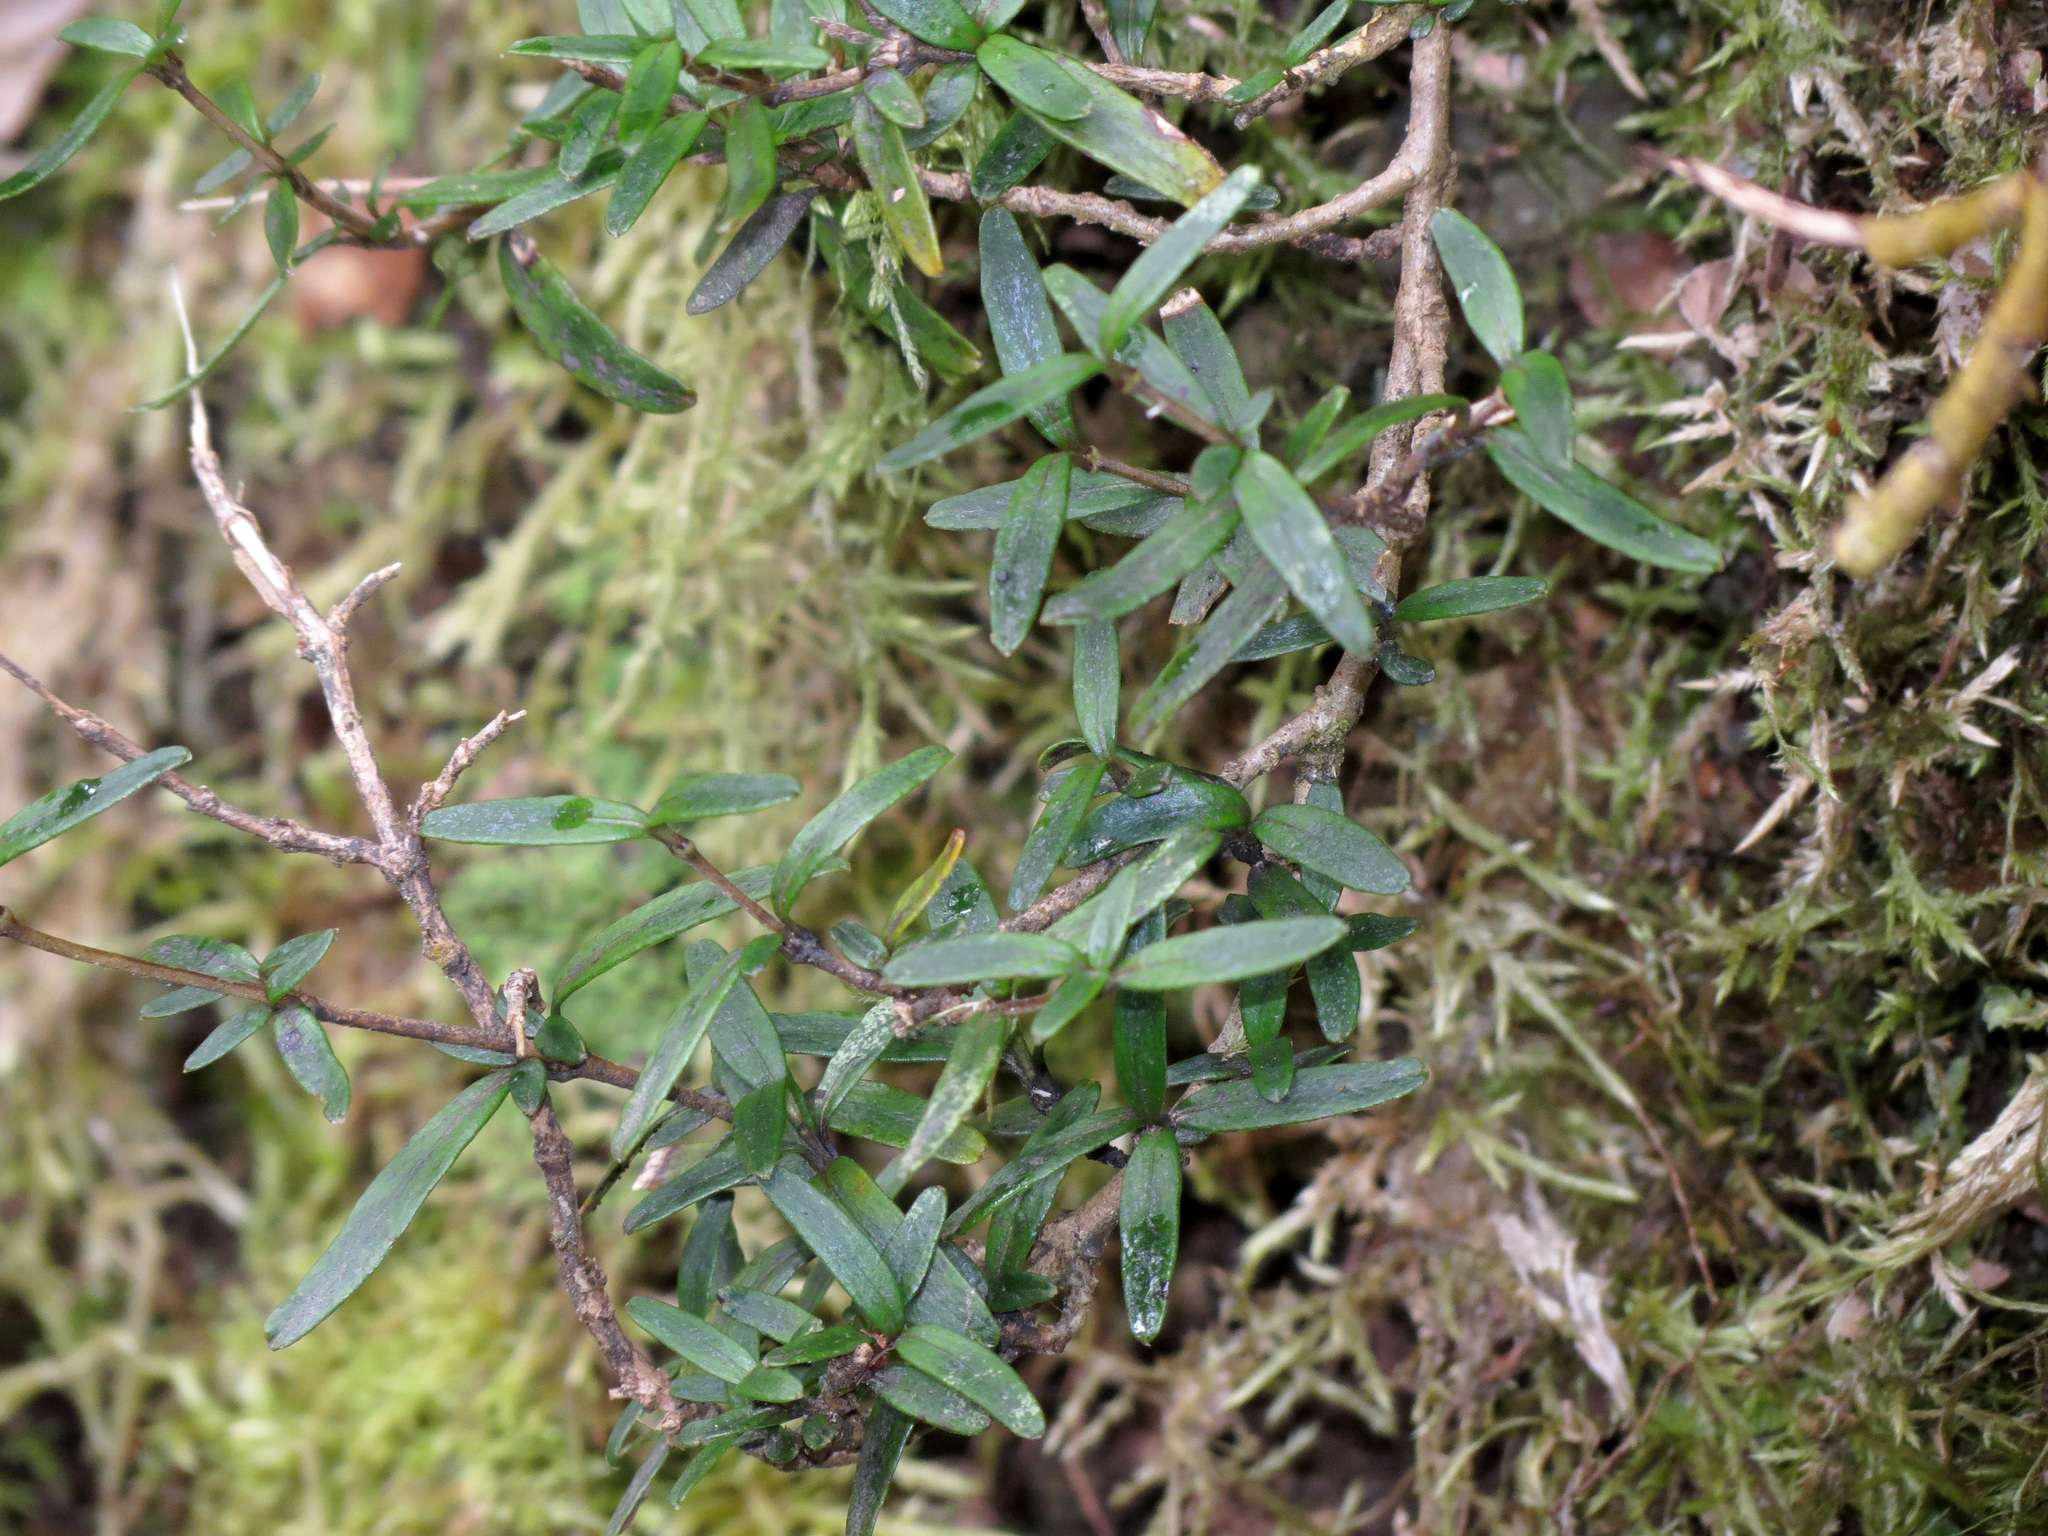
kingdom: Plantae
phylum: Tracheophyta
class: Magnoliopsida
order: Gentianales
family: Rubiaceae
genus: Coprosma
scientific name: Coprosma linariifolia
